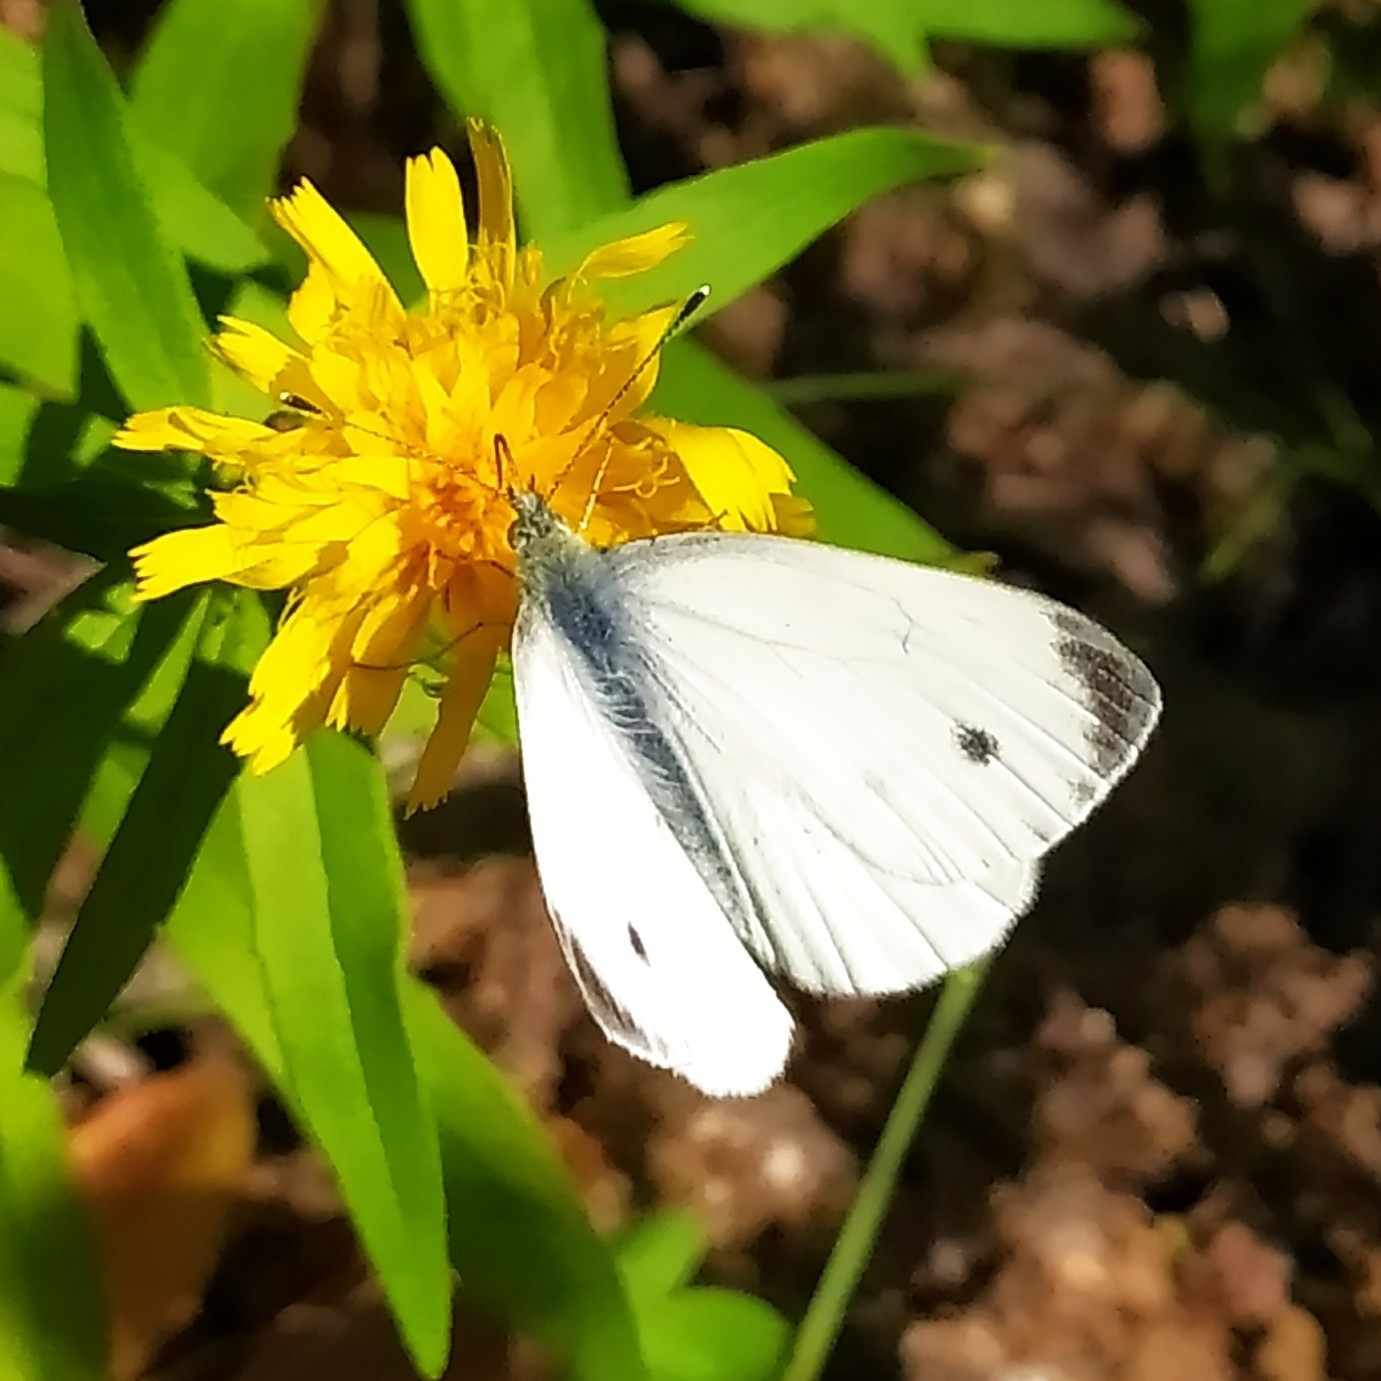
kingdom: Animalia
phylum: Arthropoda
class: Insecta
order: Lepidoptera
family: Pieridae
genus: Pieris
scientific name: Pieris napi
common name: Green-veined white
